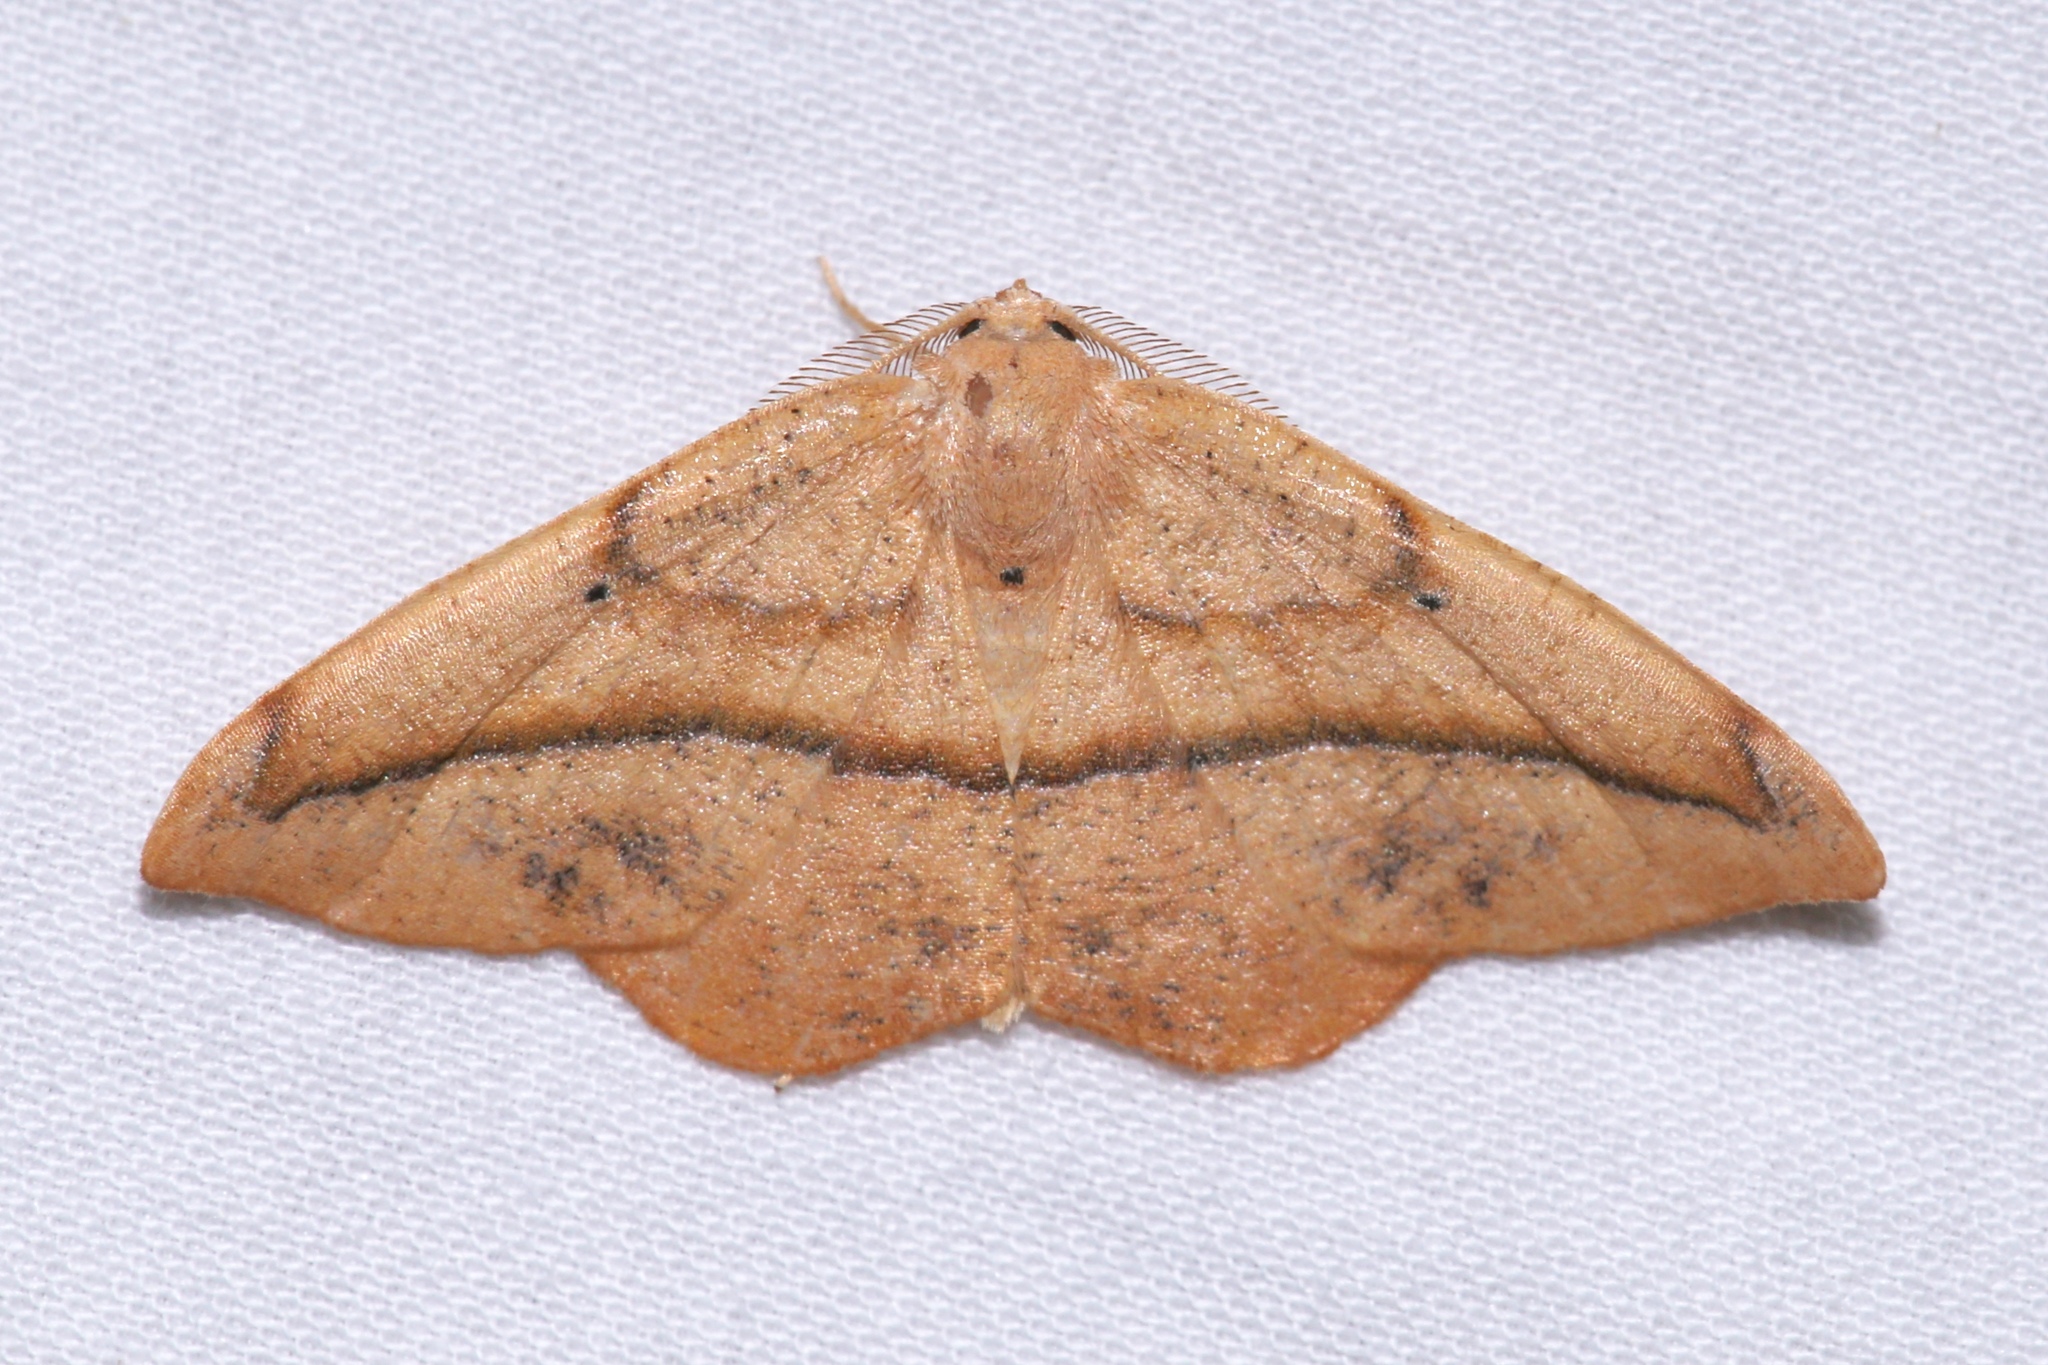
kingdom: Animalia
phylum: Arthropoda
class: Insecta
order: Lepidoptera
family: Geometridae
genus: Patalene
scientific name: Patalene olyzonaria
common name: Juniper geometer moth
